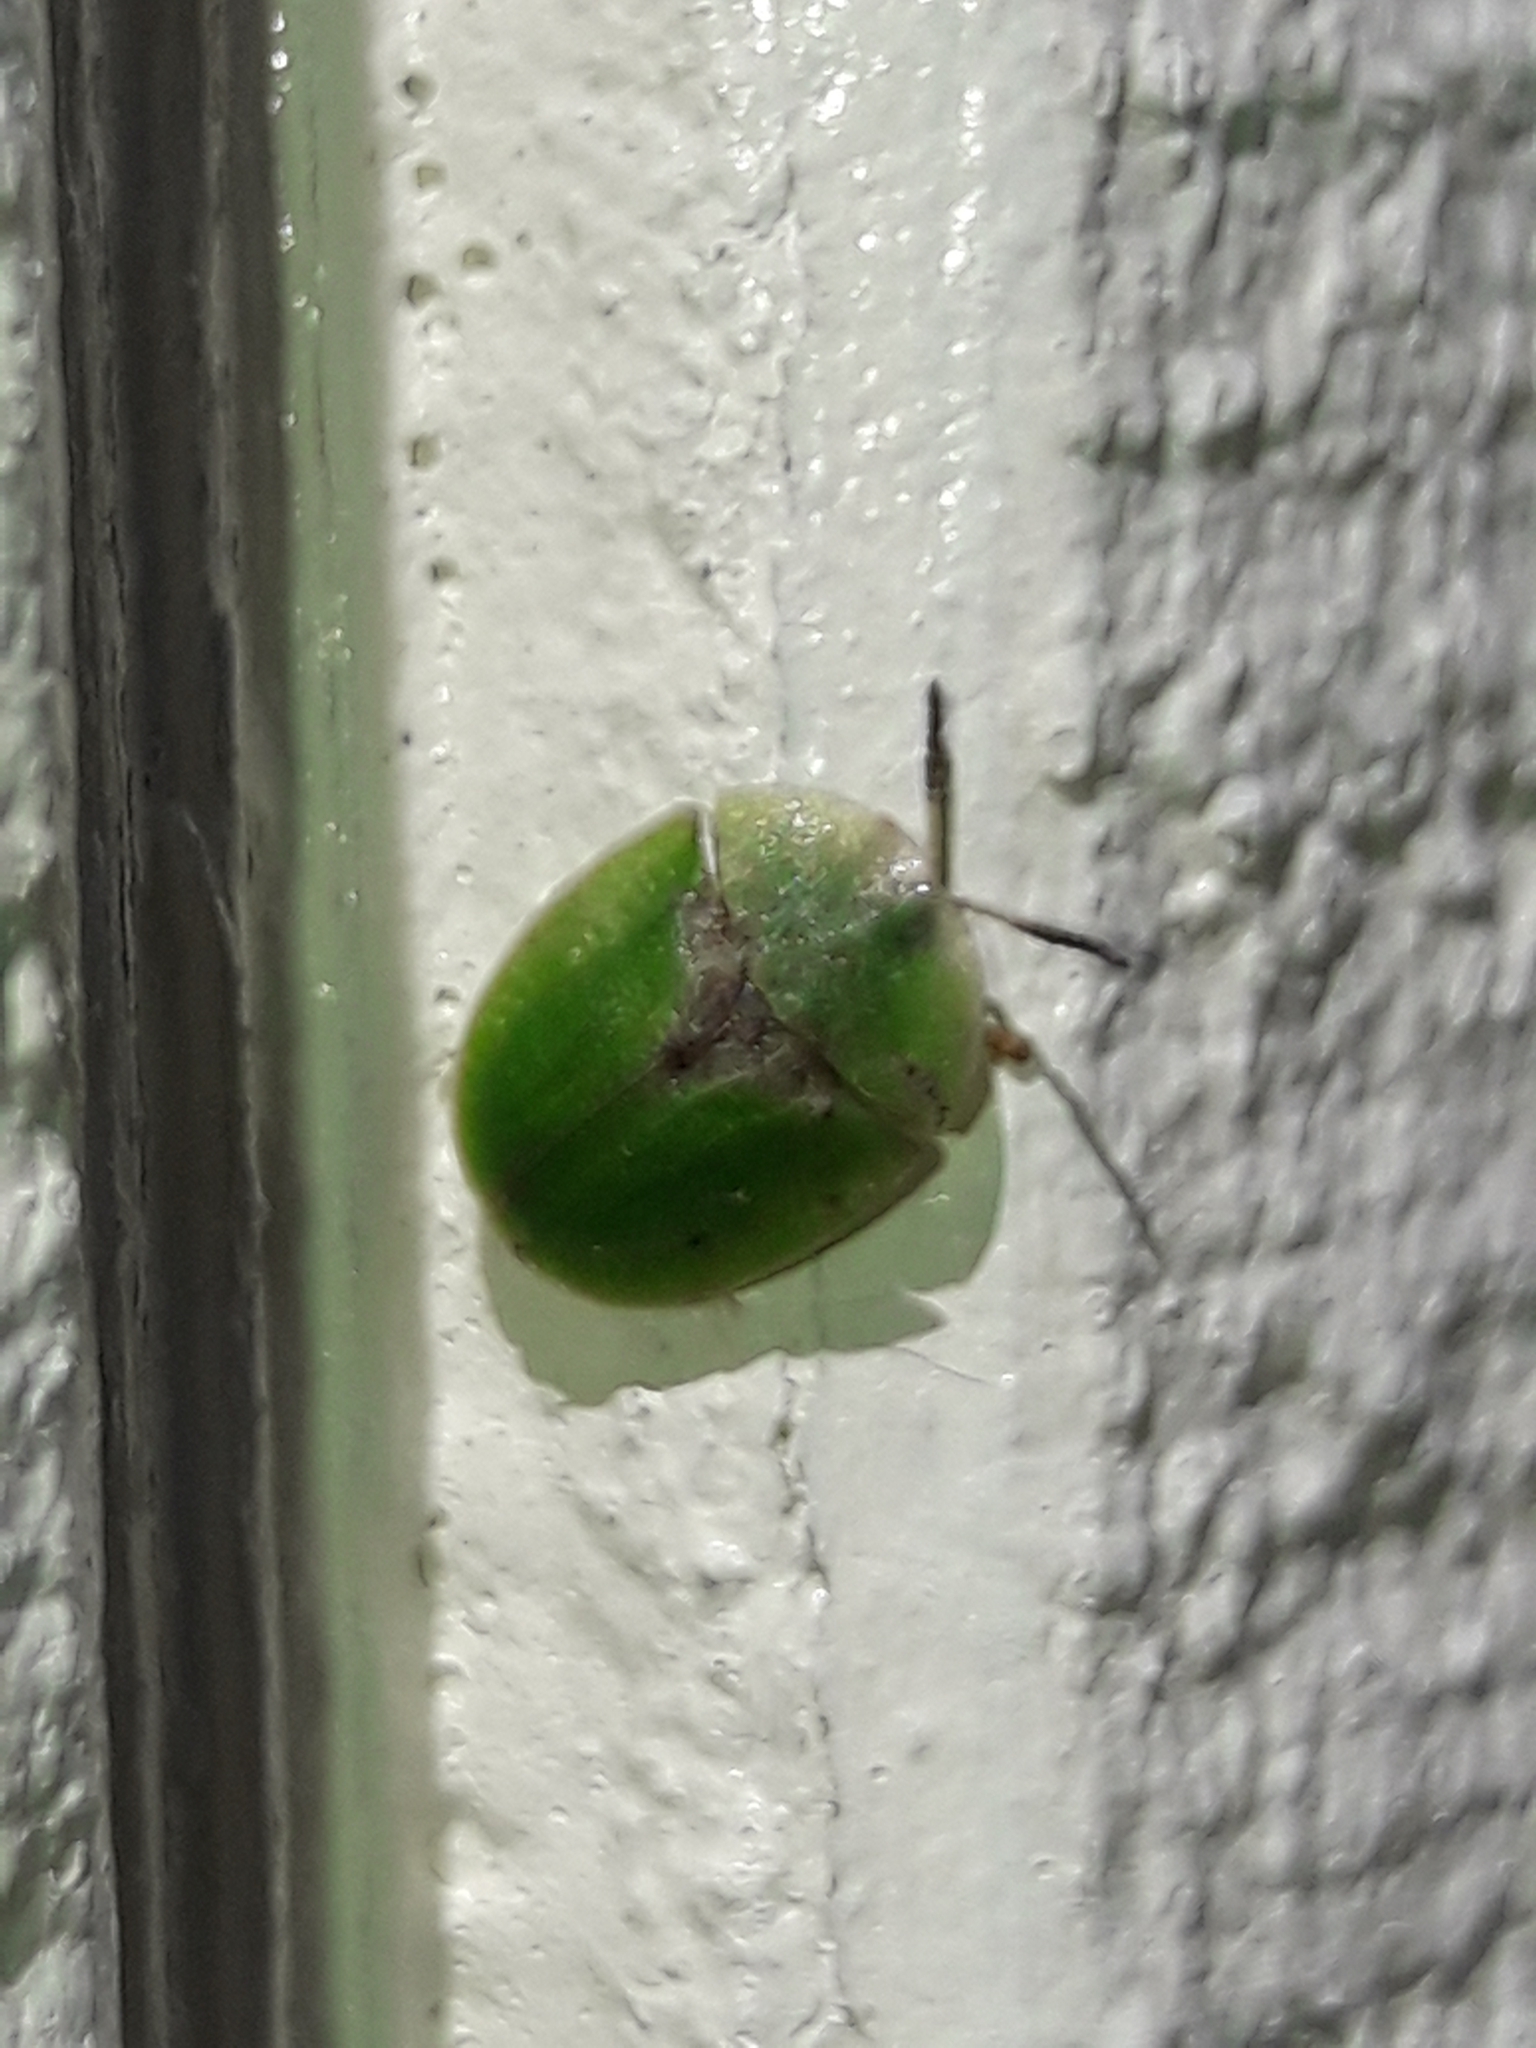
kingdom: Animalia
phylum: Arthropoda
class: Insecta
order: Coleoptera
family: Chrysomelidae
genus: Cassida
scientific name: Cassida rubiginosa
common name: Thistle tortoise beetle
